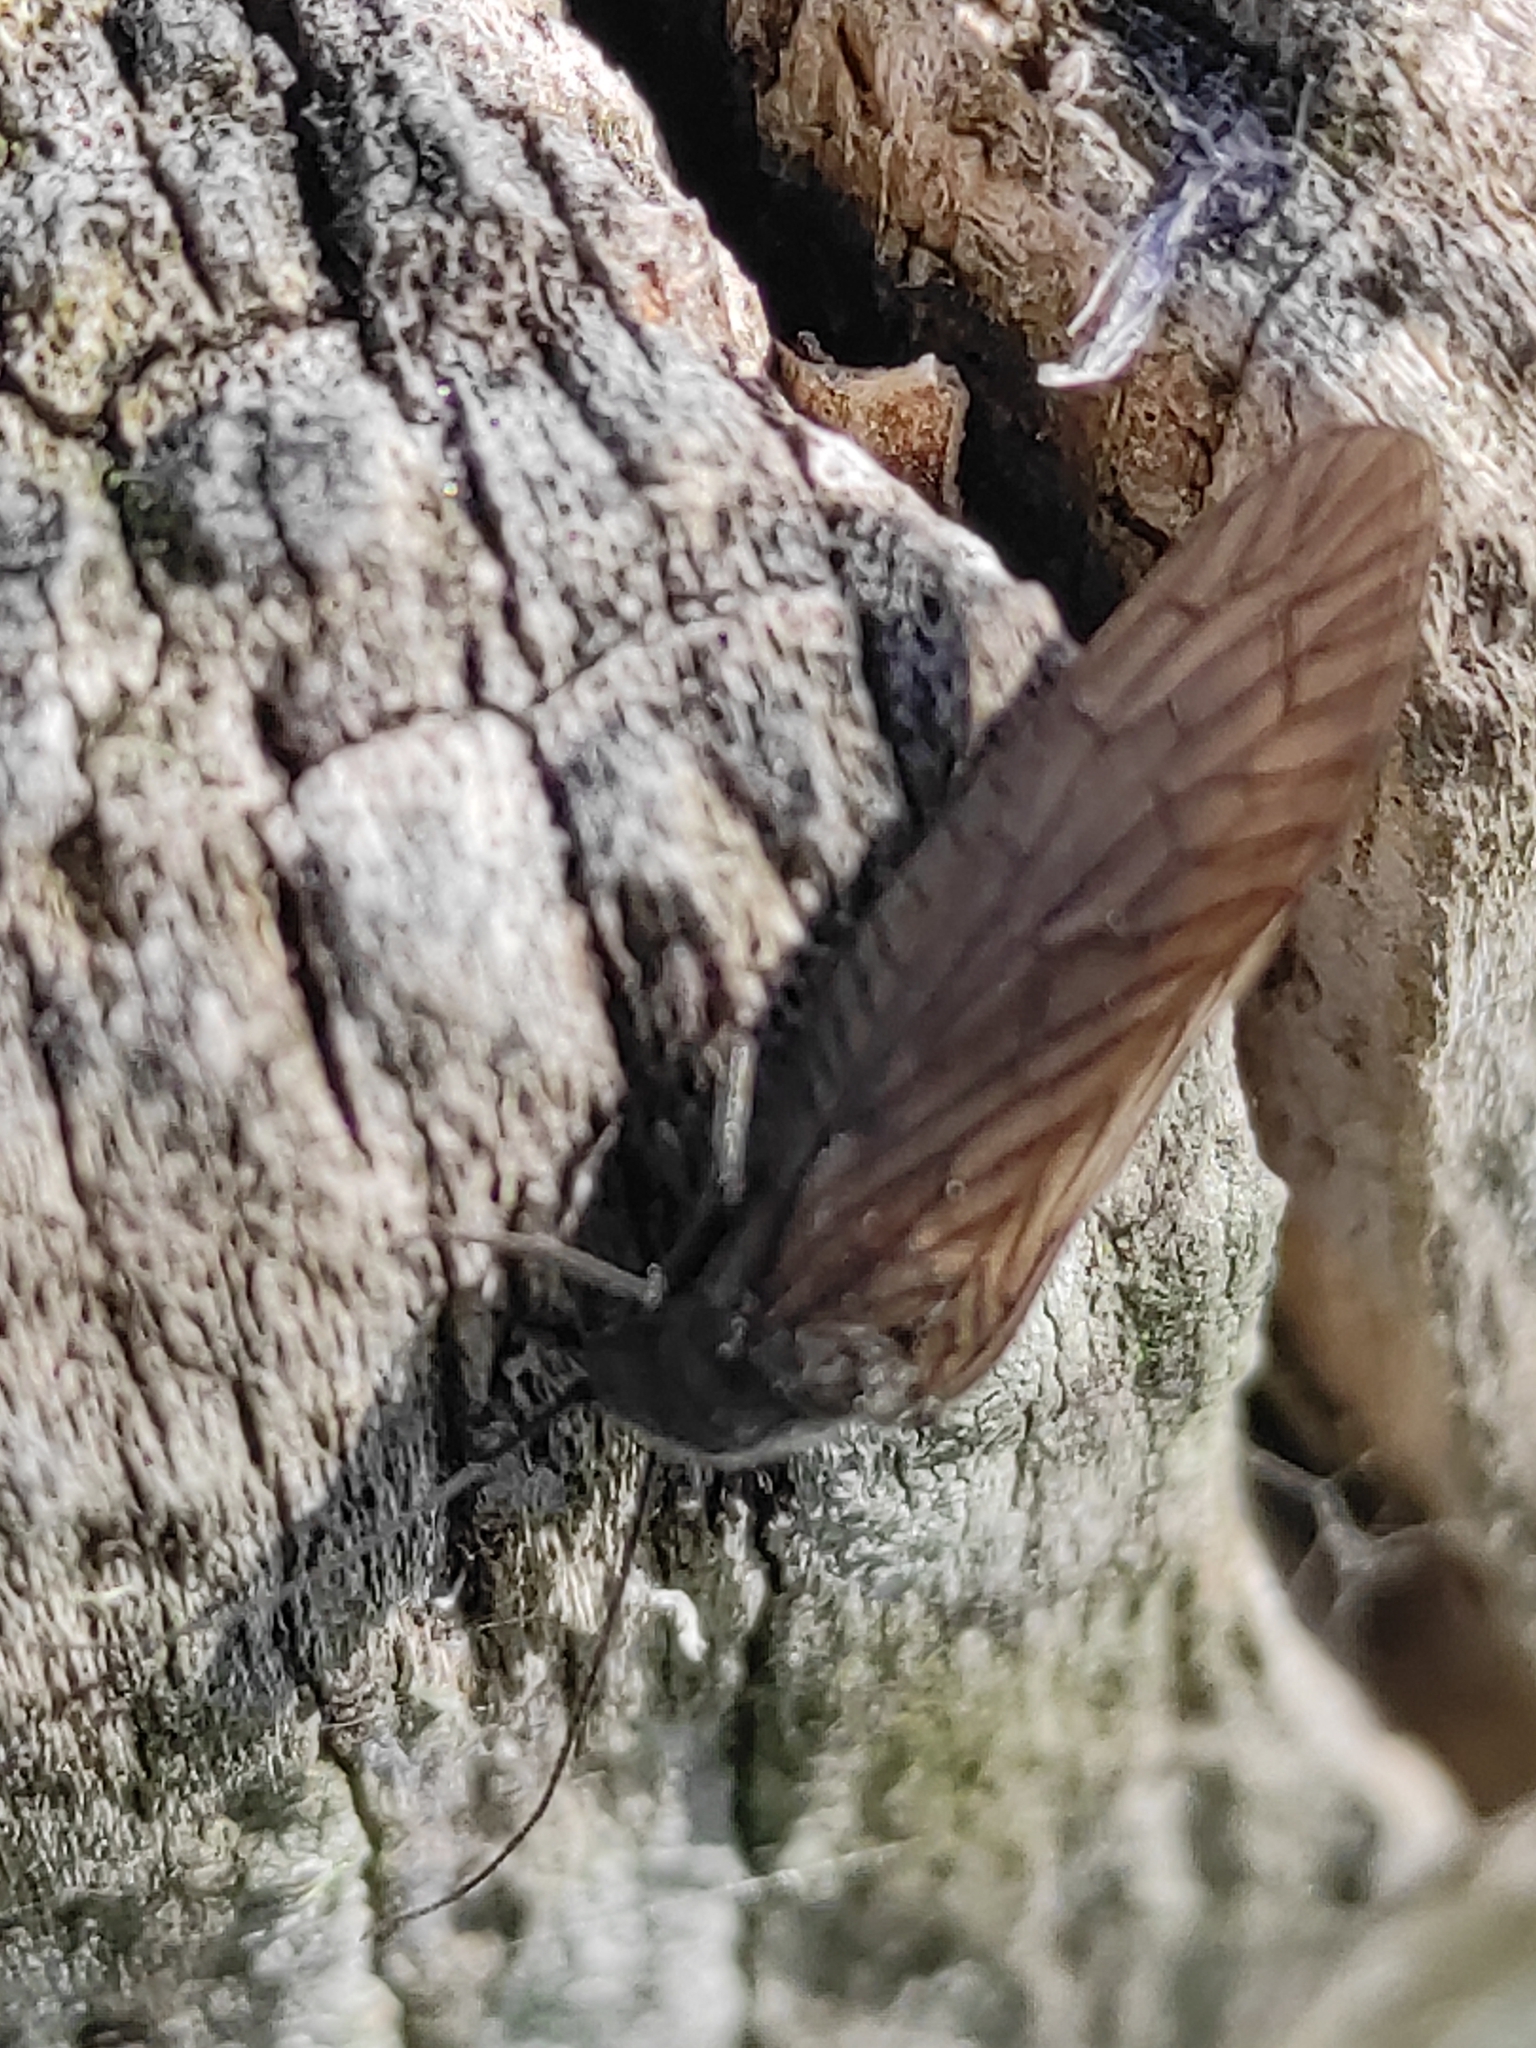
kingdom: Animalia
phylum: Arthropoda
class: Insecta
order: Megaloptera
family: Sialidae
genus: Sialis
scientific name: Sialis
